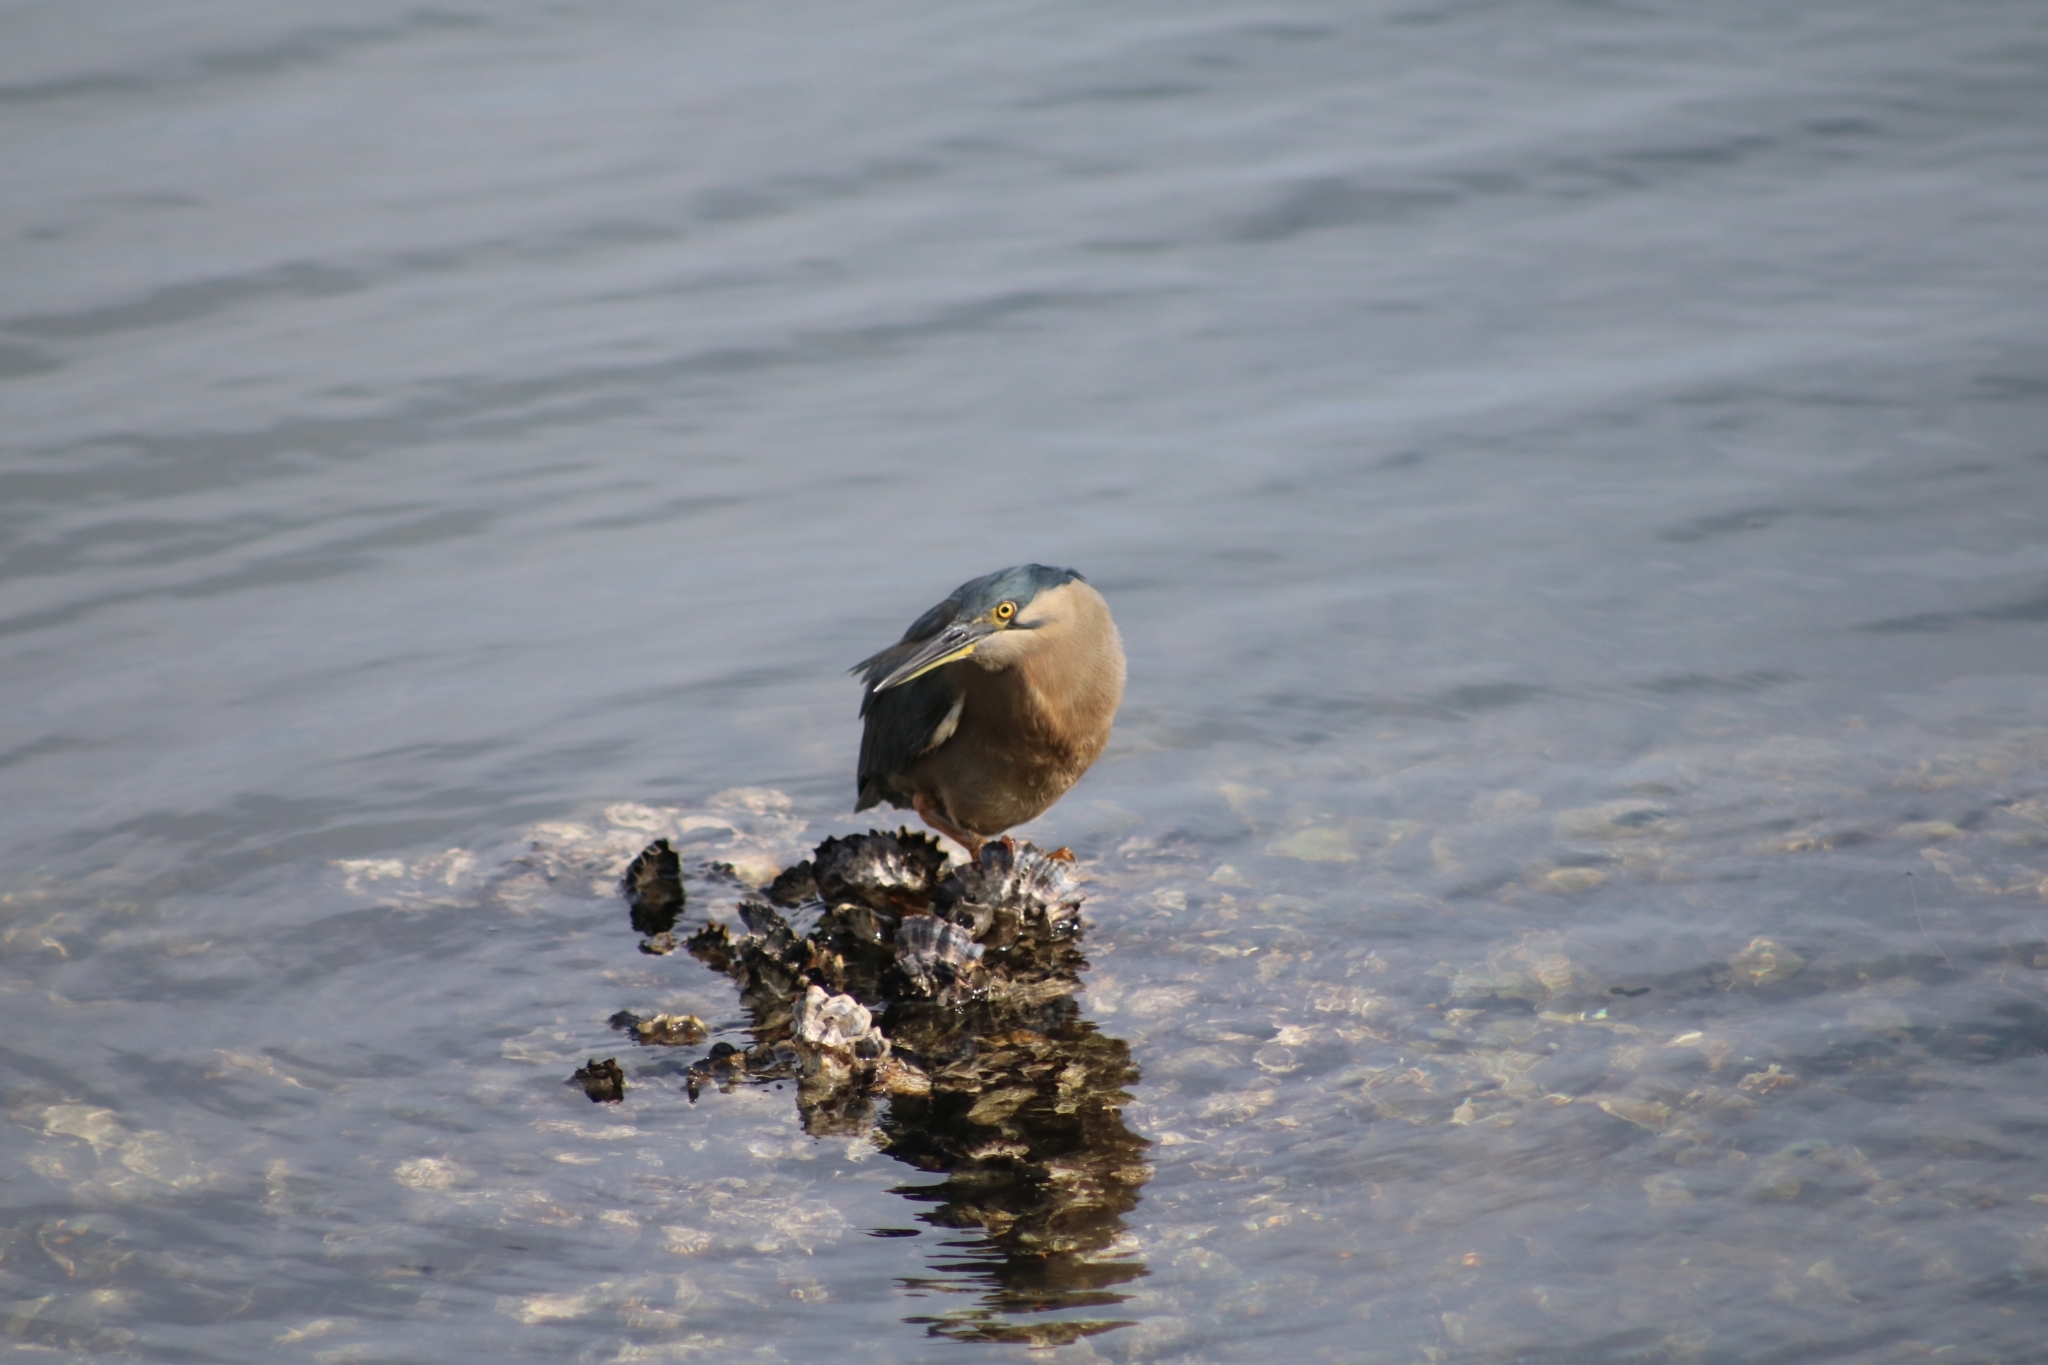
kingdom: Animalia
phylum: Chordata
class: Aves
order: Pelecaniformes
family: Ardeidae
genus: Butorides
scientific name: Butorides striata
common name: Striated heron
